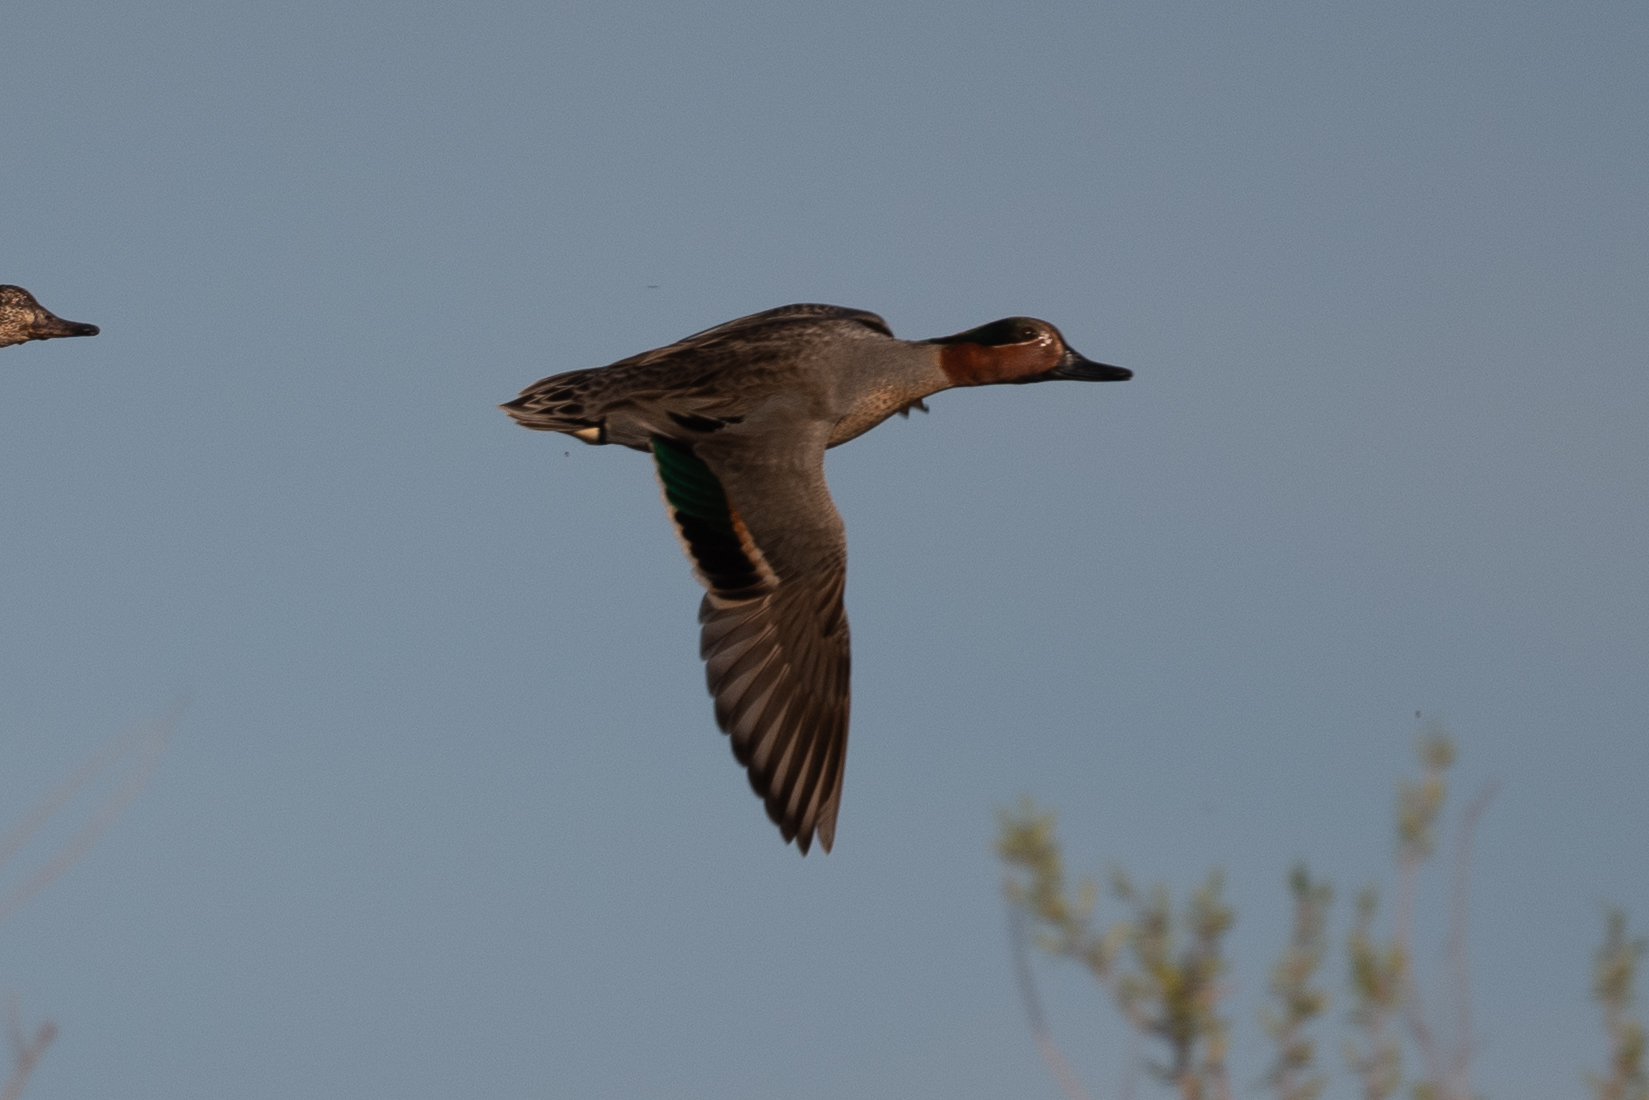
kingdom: Animalia
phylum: Chordata
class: Aves
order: Anseriformes
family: Anatidae
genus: Anas
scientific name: Anas crecca
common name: Eurasian teal
